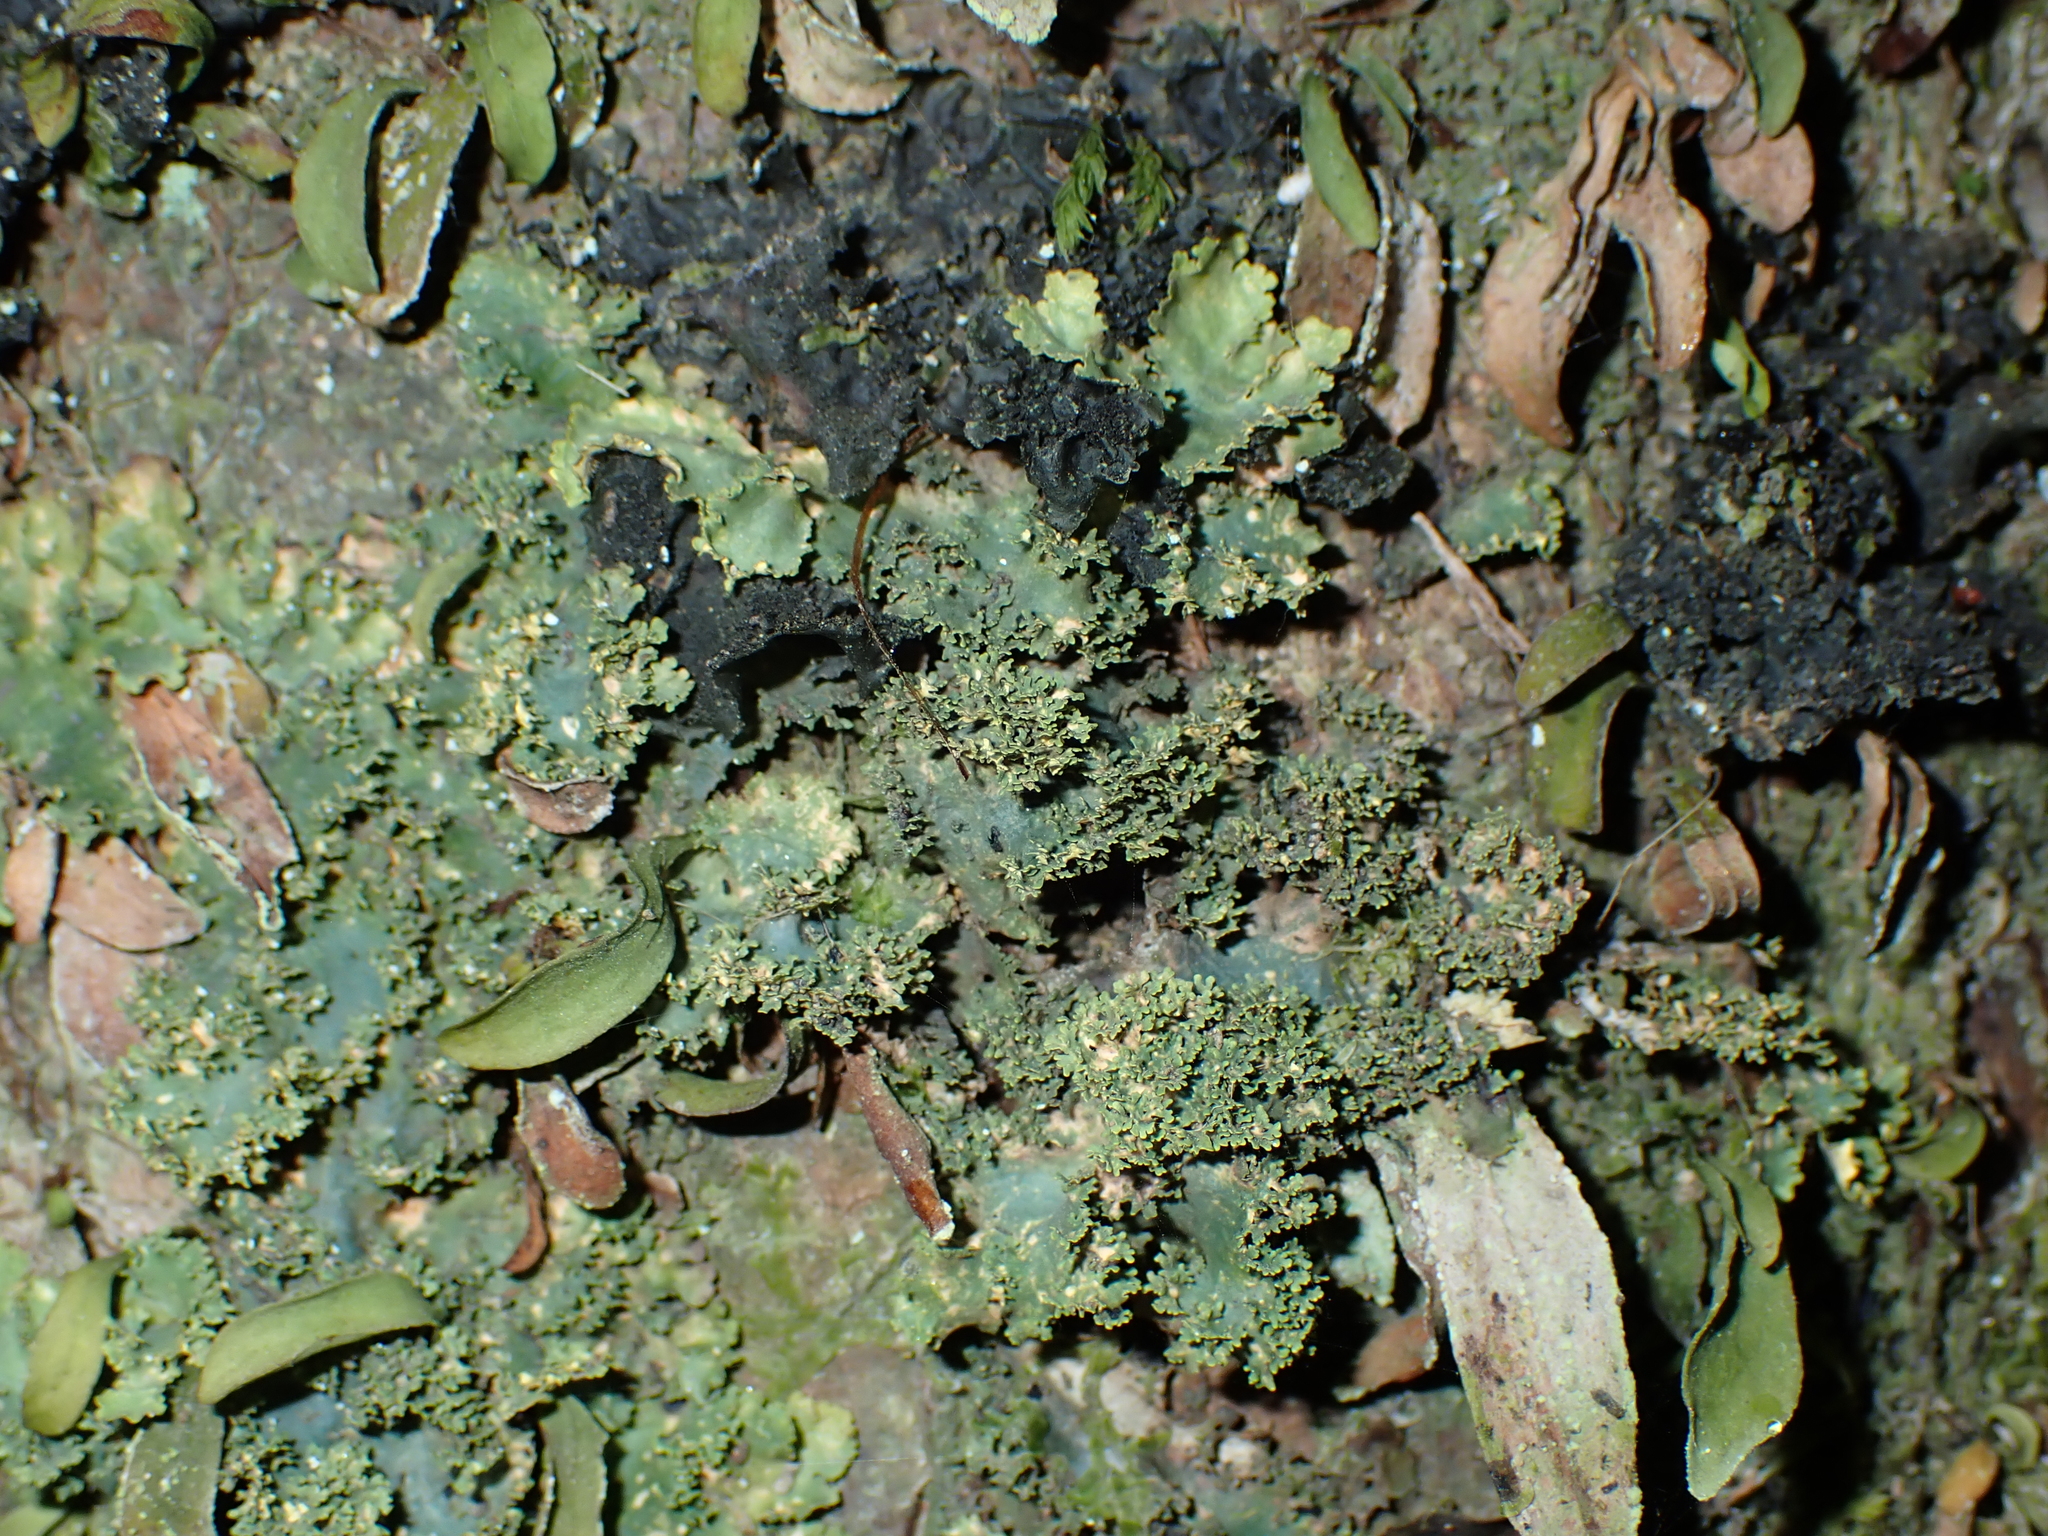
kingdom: Fungi
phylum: Ascomycota
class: Lecanoromycetes
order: Peltigerales
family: Lobariaceae
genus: Podostictina
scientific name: Podostictina pickeringii
